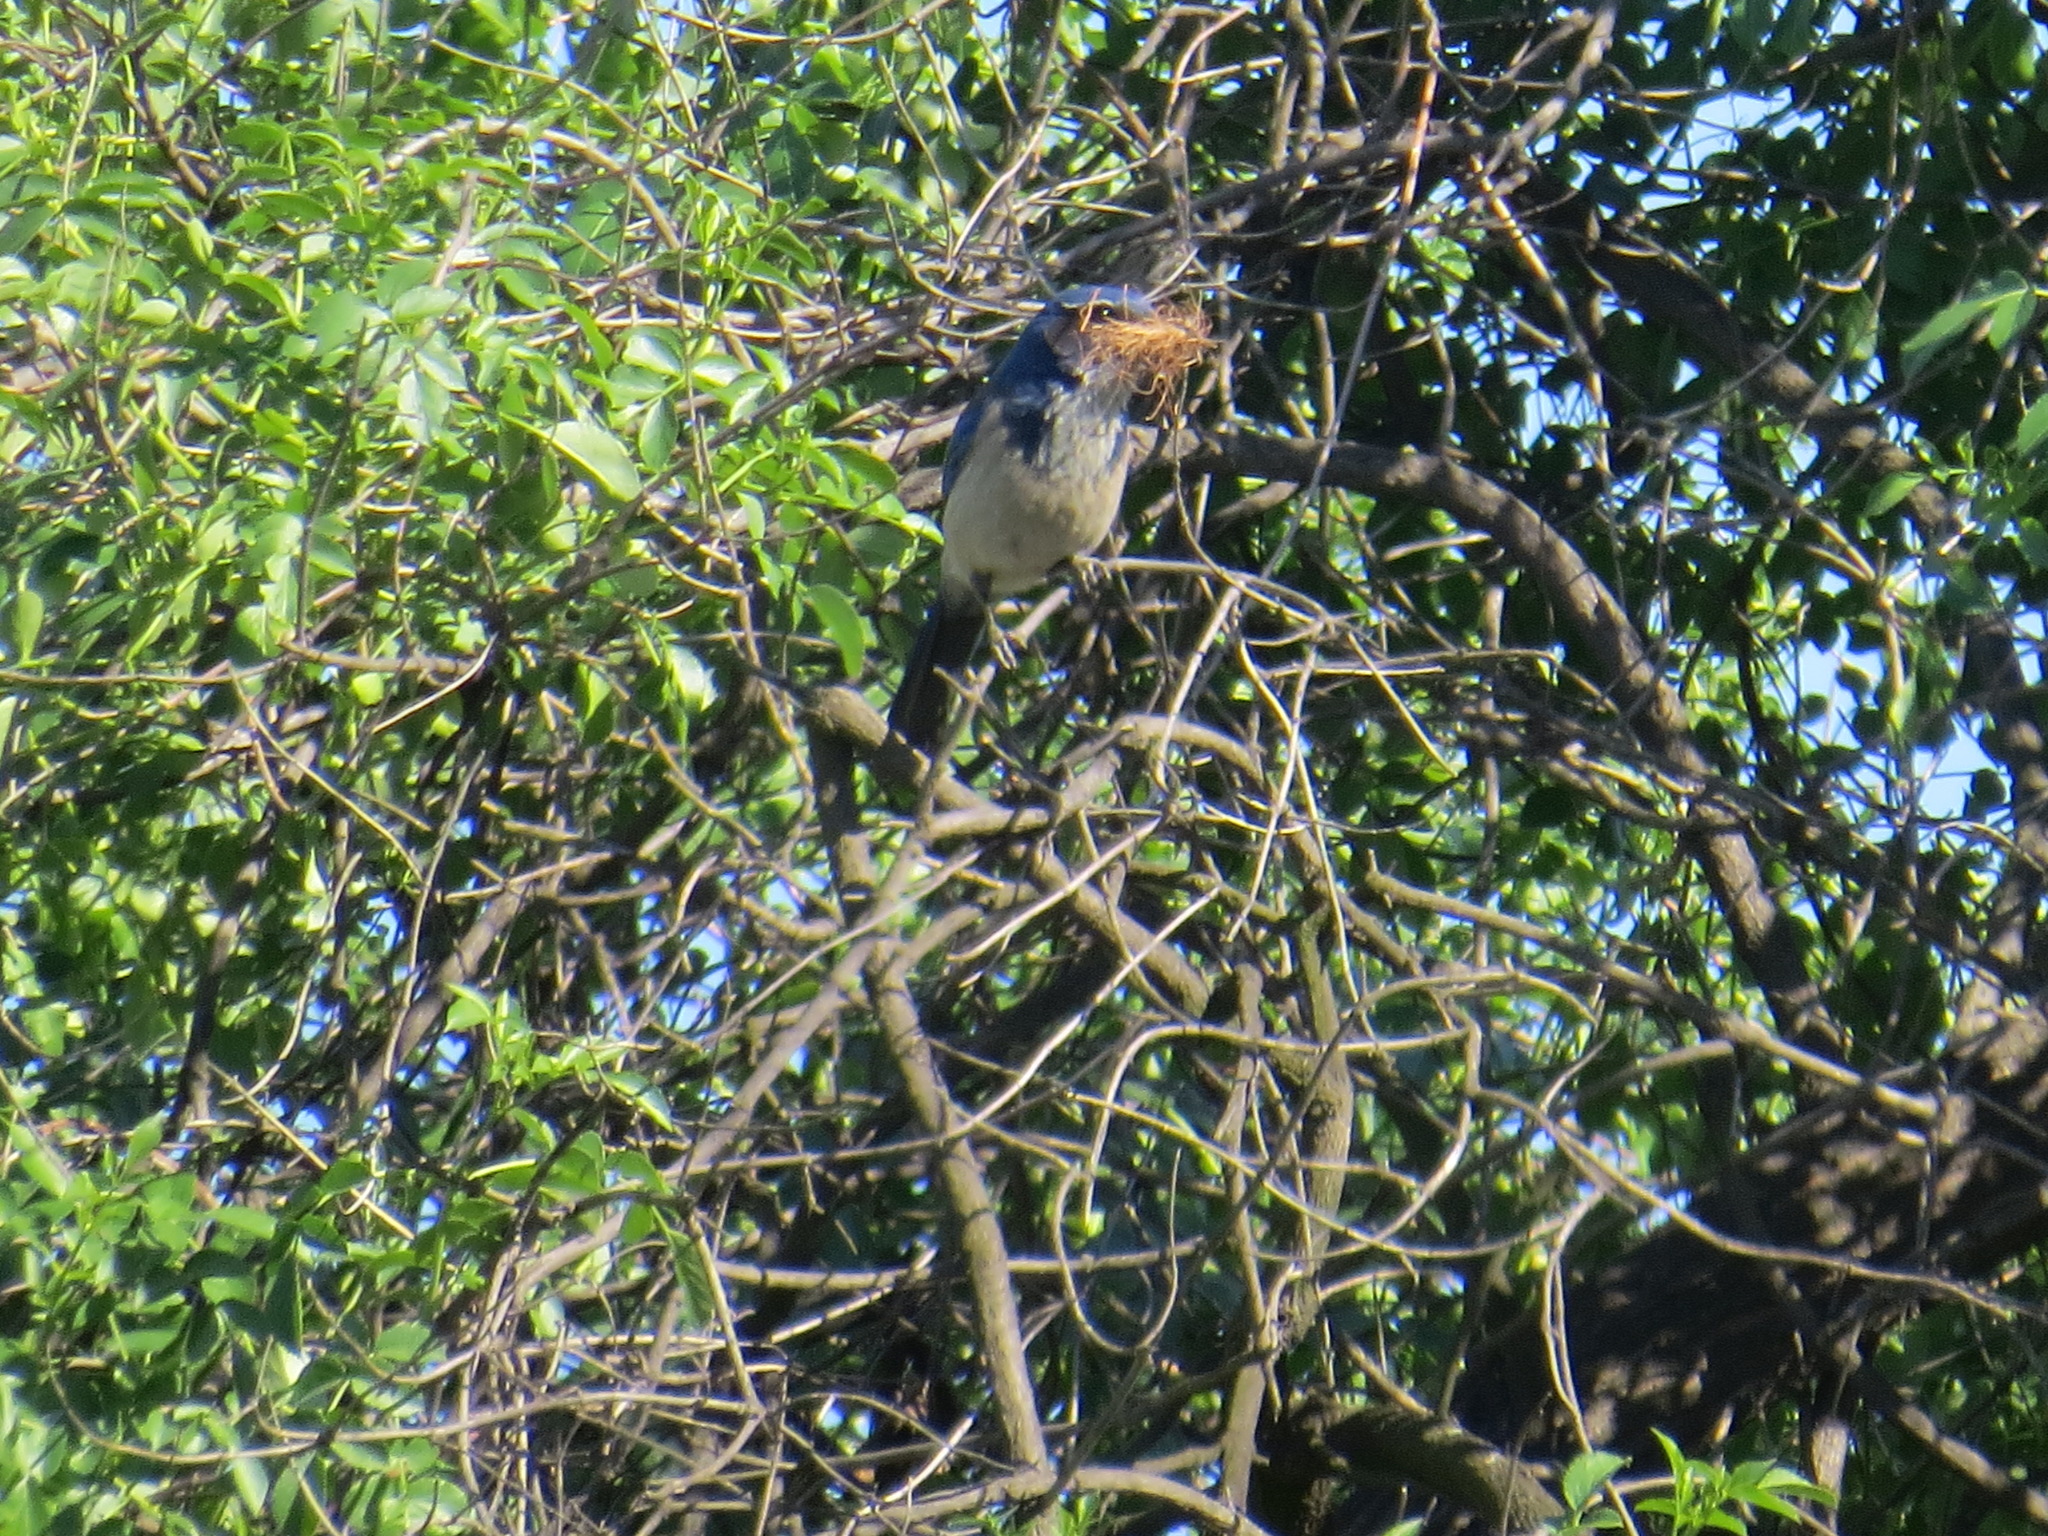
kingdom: Animalia
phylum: Chordata
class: Aves
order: Passeriformes
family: Corvidae
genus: Aphelocoma
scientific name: Aphelocoma californica
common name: California scrub-jay
